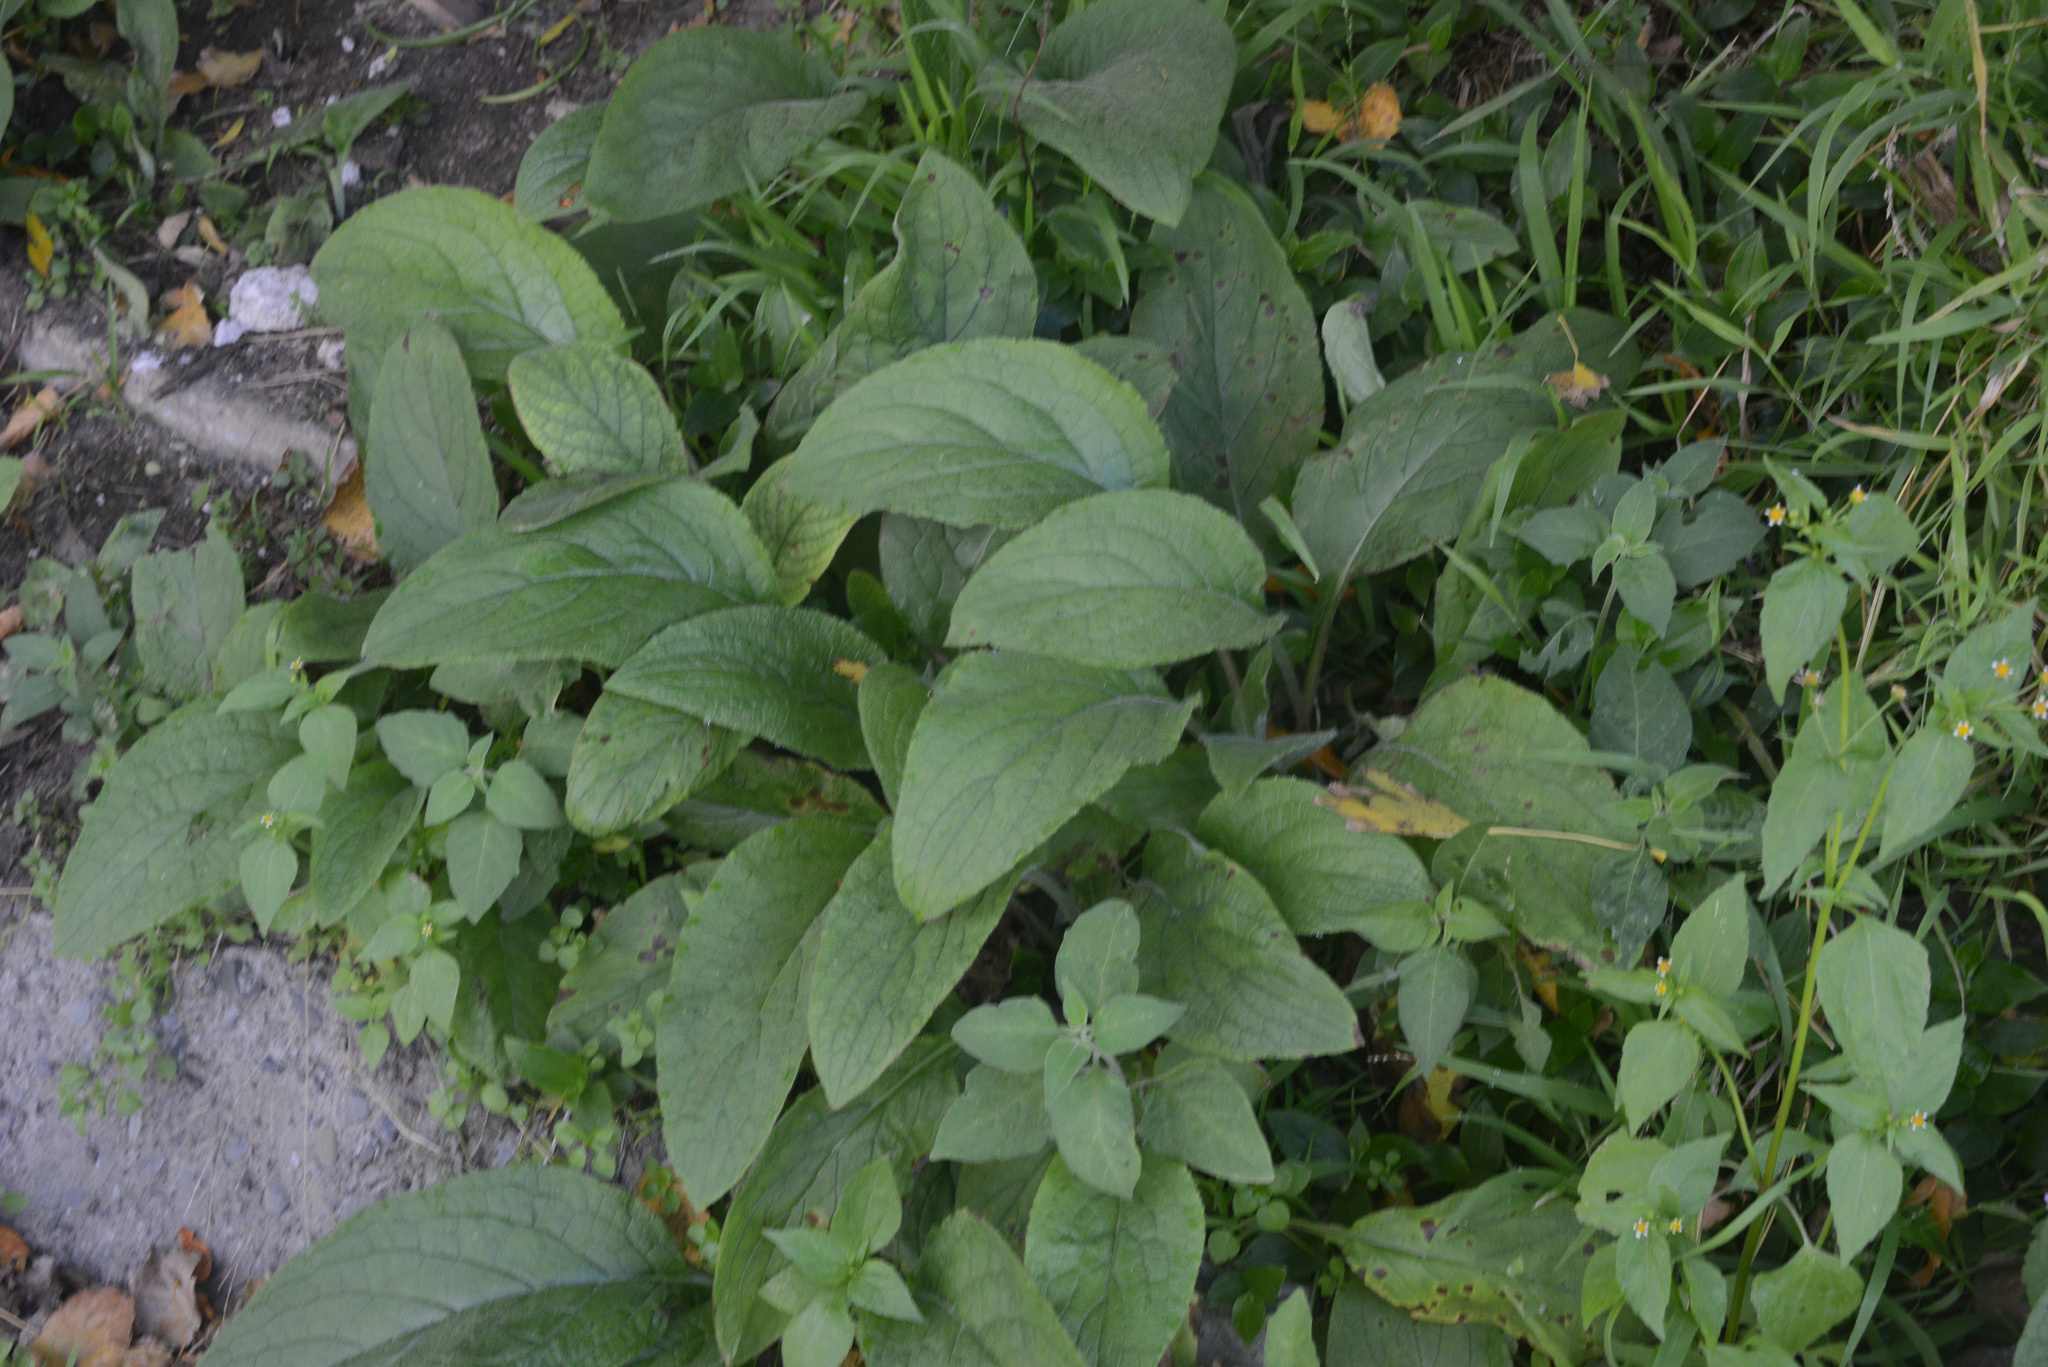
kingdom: Plantae
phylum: Tracheophyta
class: Magnoliopsida
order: Boraginales
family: Boraginaceae
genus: Pentaglottis
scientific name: Pentaglottis sempervirens
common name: Green alkanet
